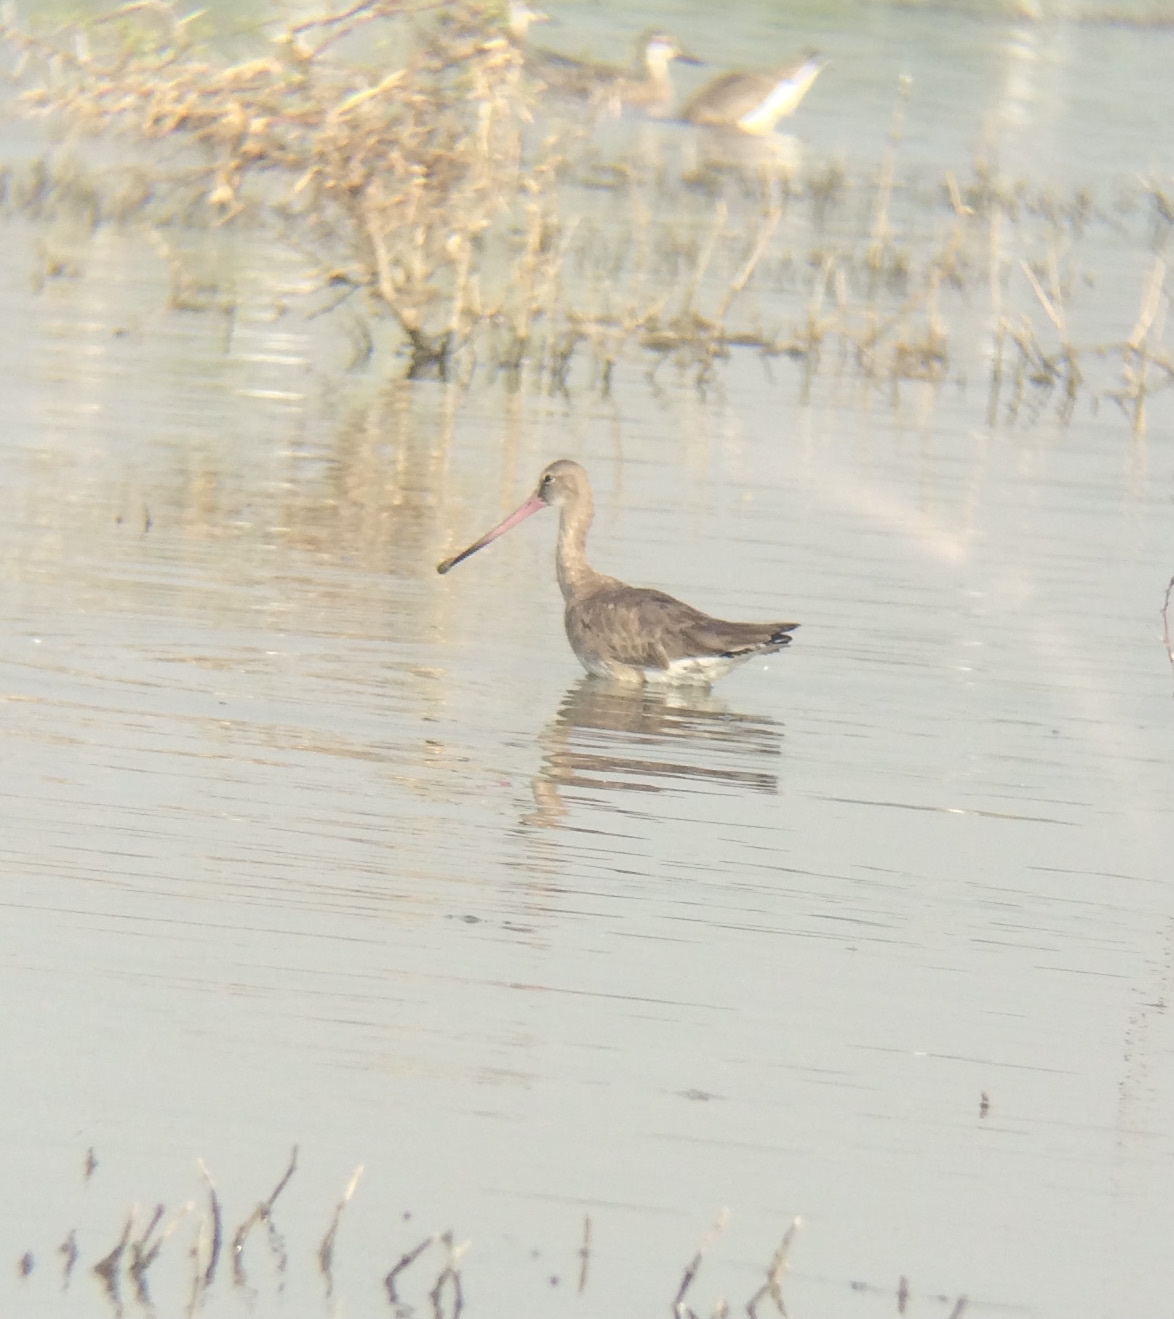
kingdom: Animalia
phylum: Chordata
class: Aves
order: Charadriiformes
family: Scolopacidae
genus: Limosa
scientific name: Limosa limosa
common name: Black-tailed godwit
